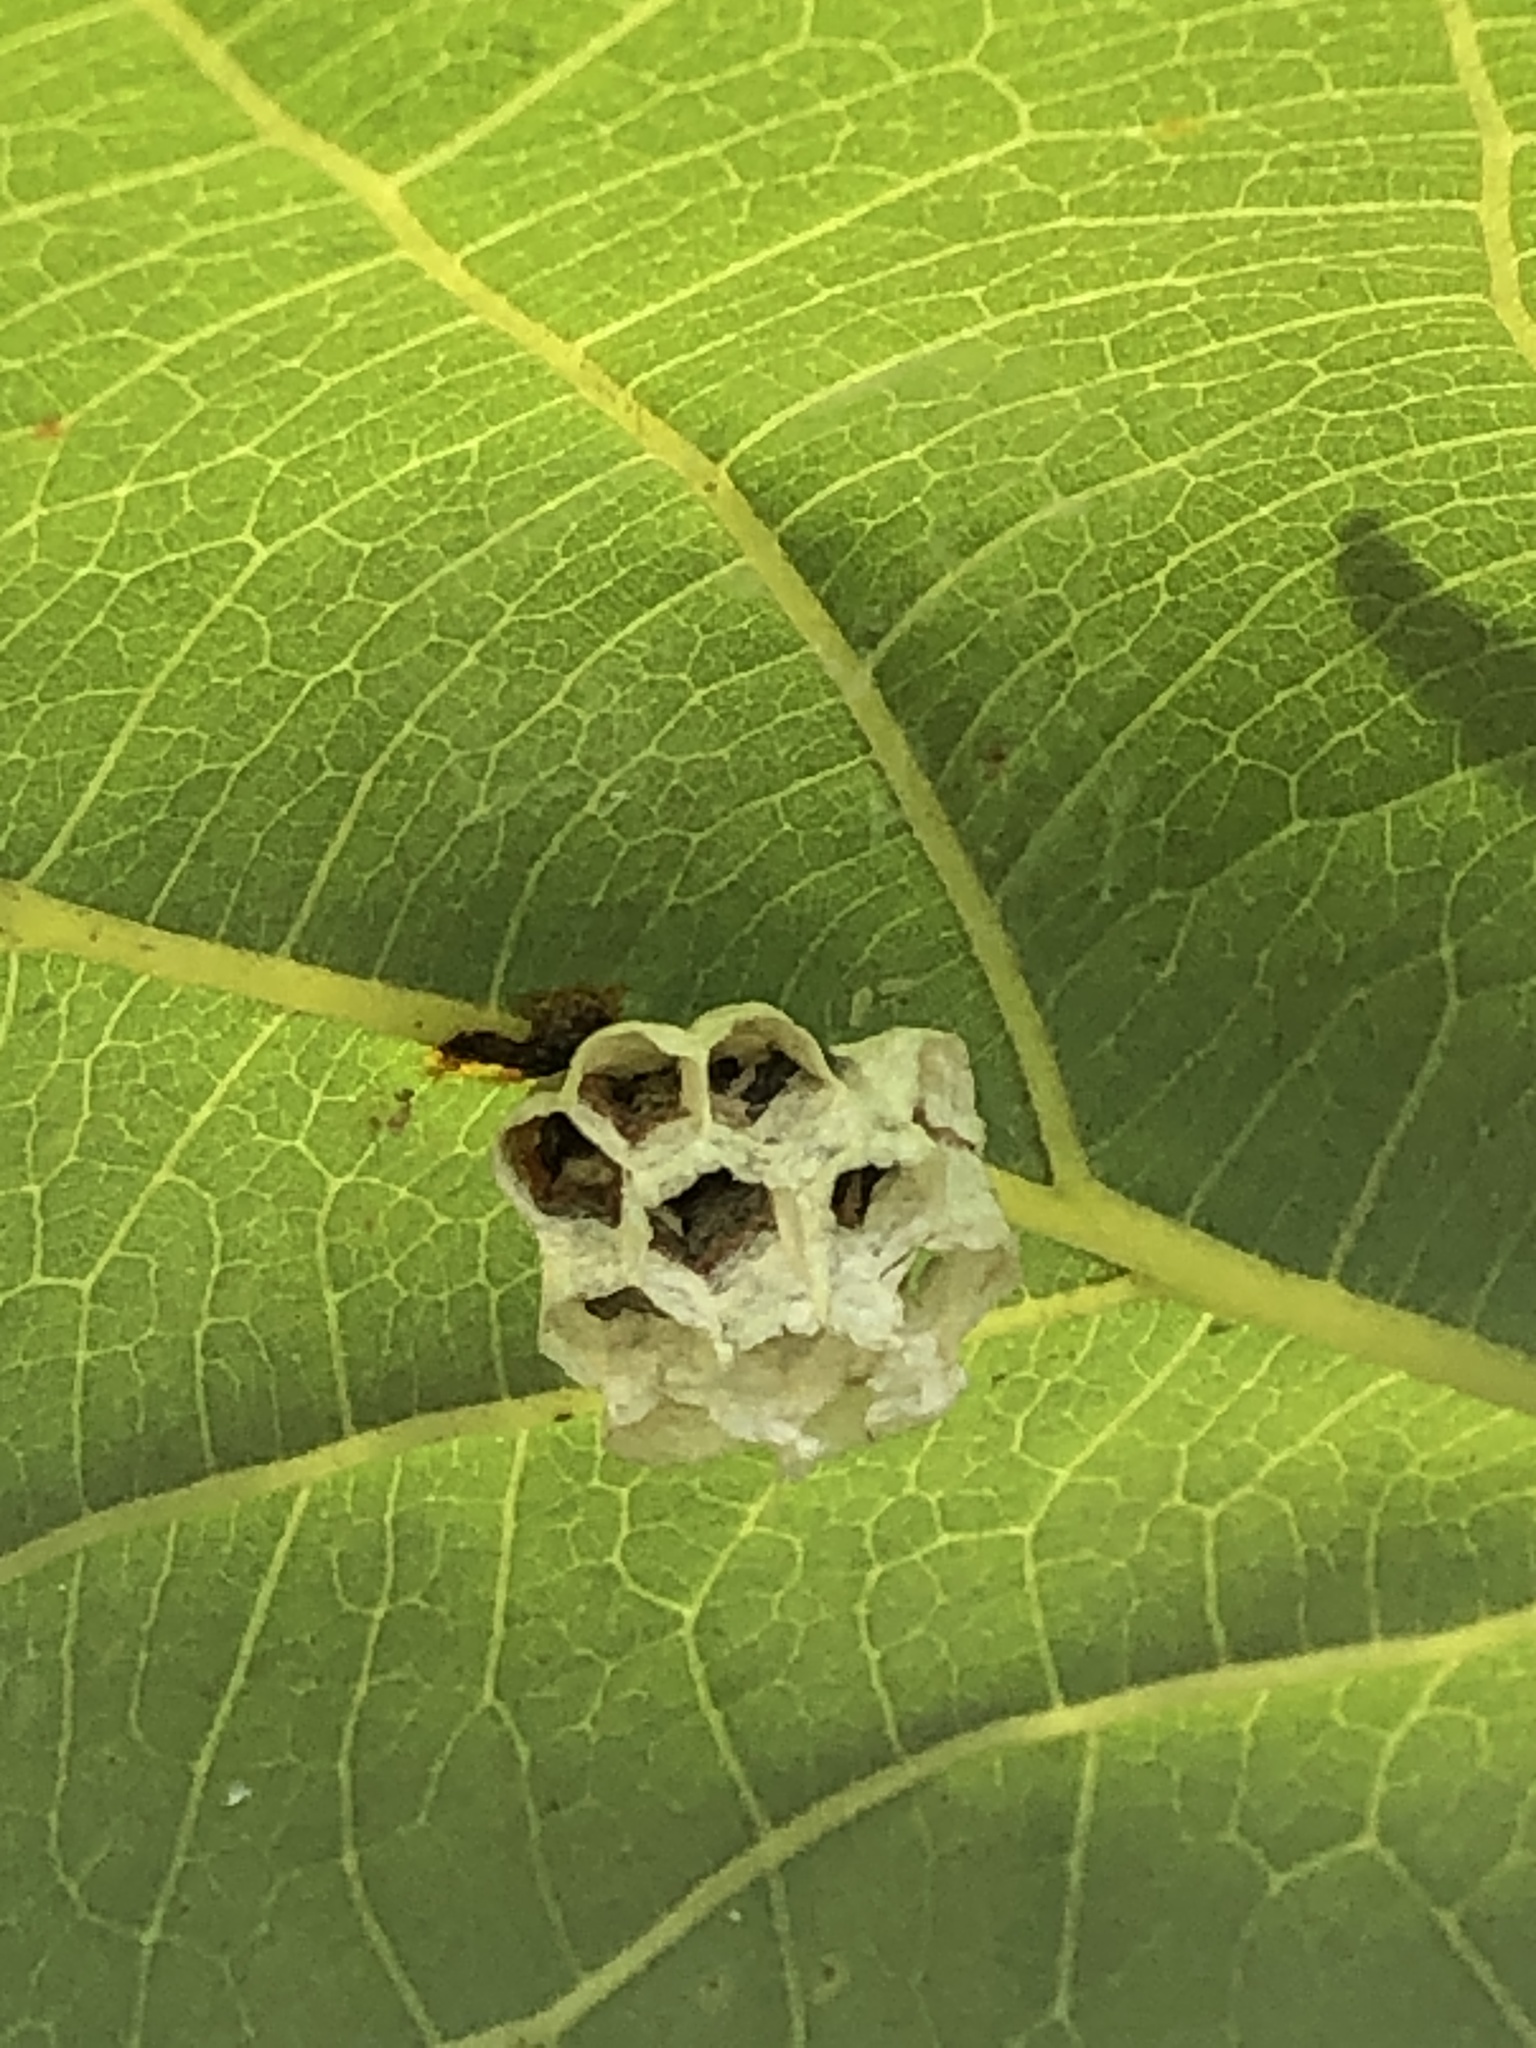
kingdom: Animalia
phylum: Arthropoda
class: Insecta
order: Hymenoptera
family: Vespidae
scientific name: Vespidae
